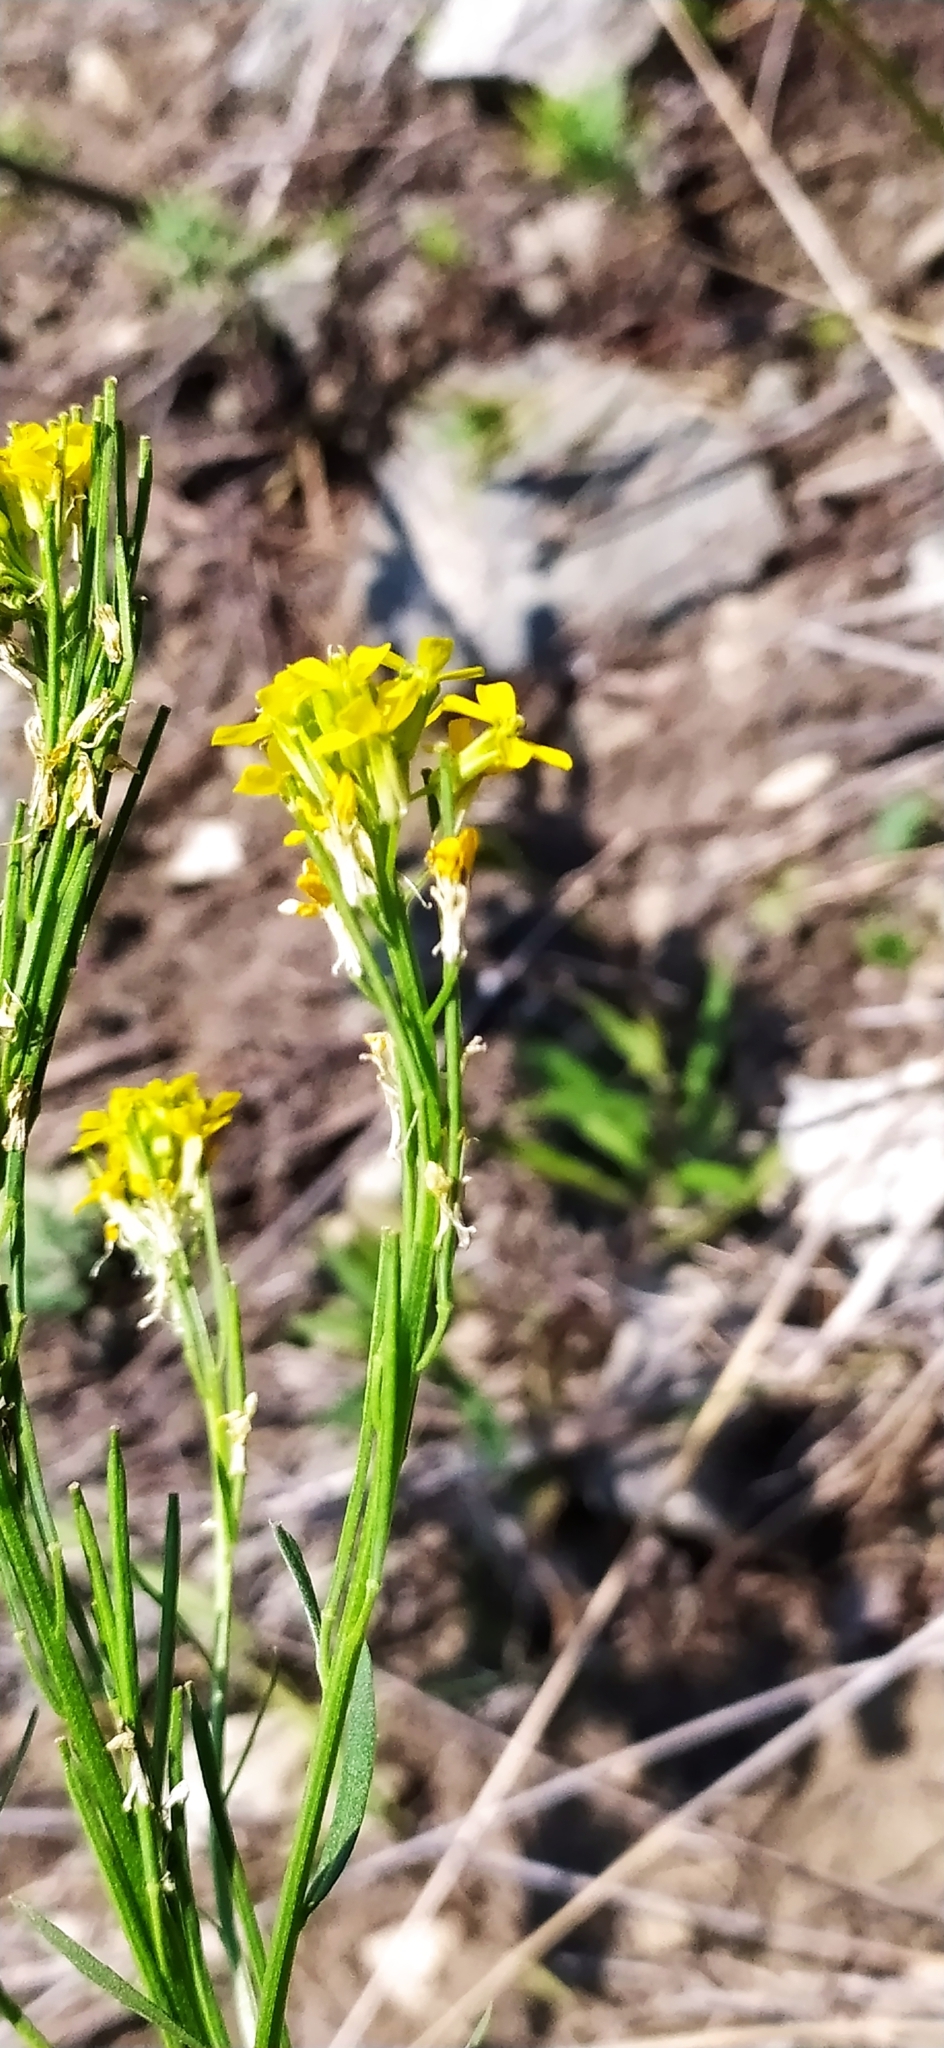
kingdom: Plantae
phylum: Tracheophyta
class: Magnoliopsida
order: Brassicales
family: Brassicaceae
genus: Erysimum
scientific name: Erysimum hieraciifolium
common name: European wallflower
